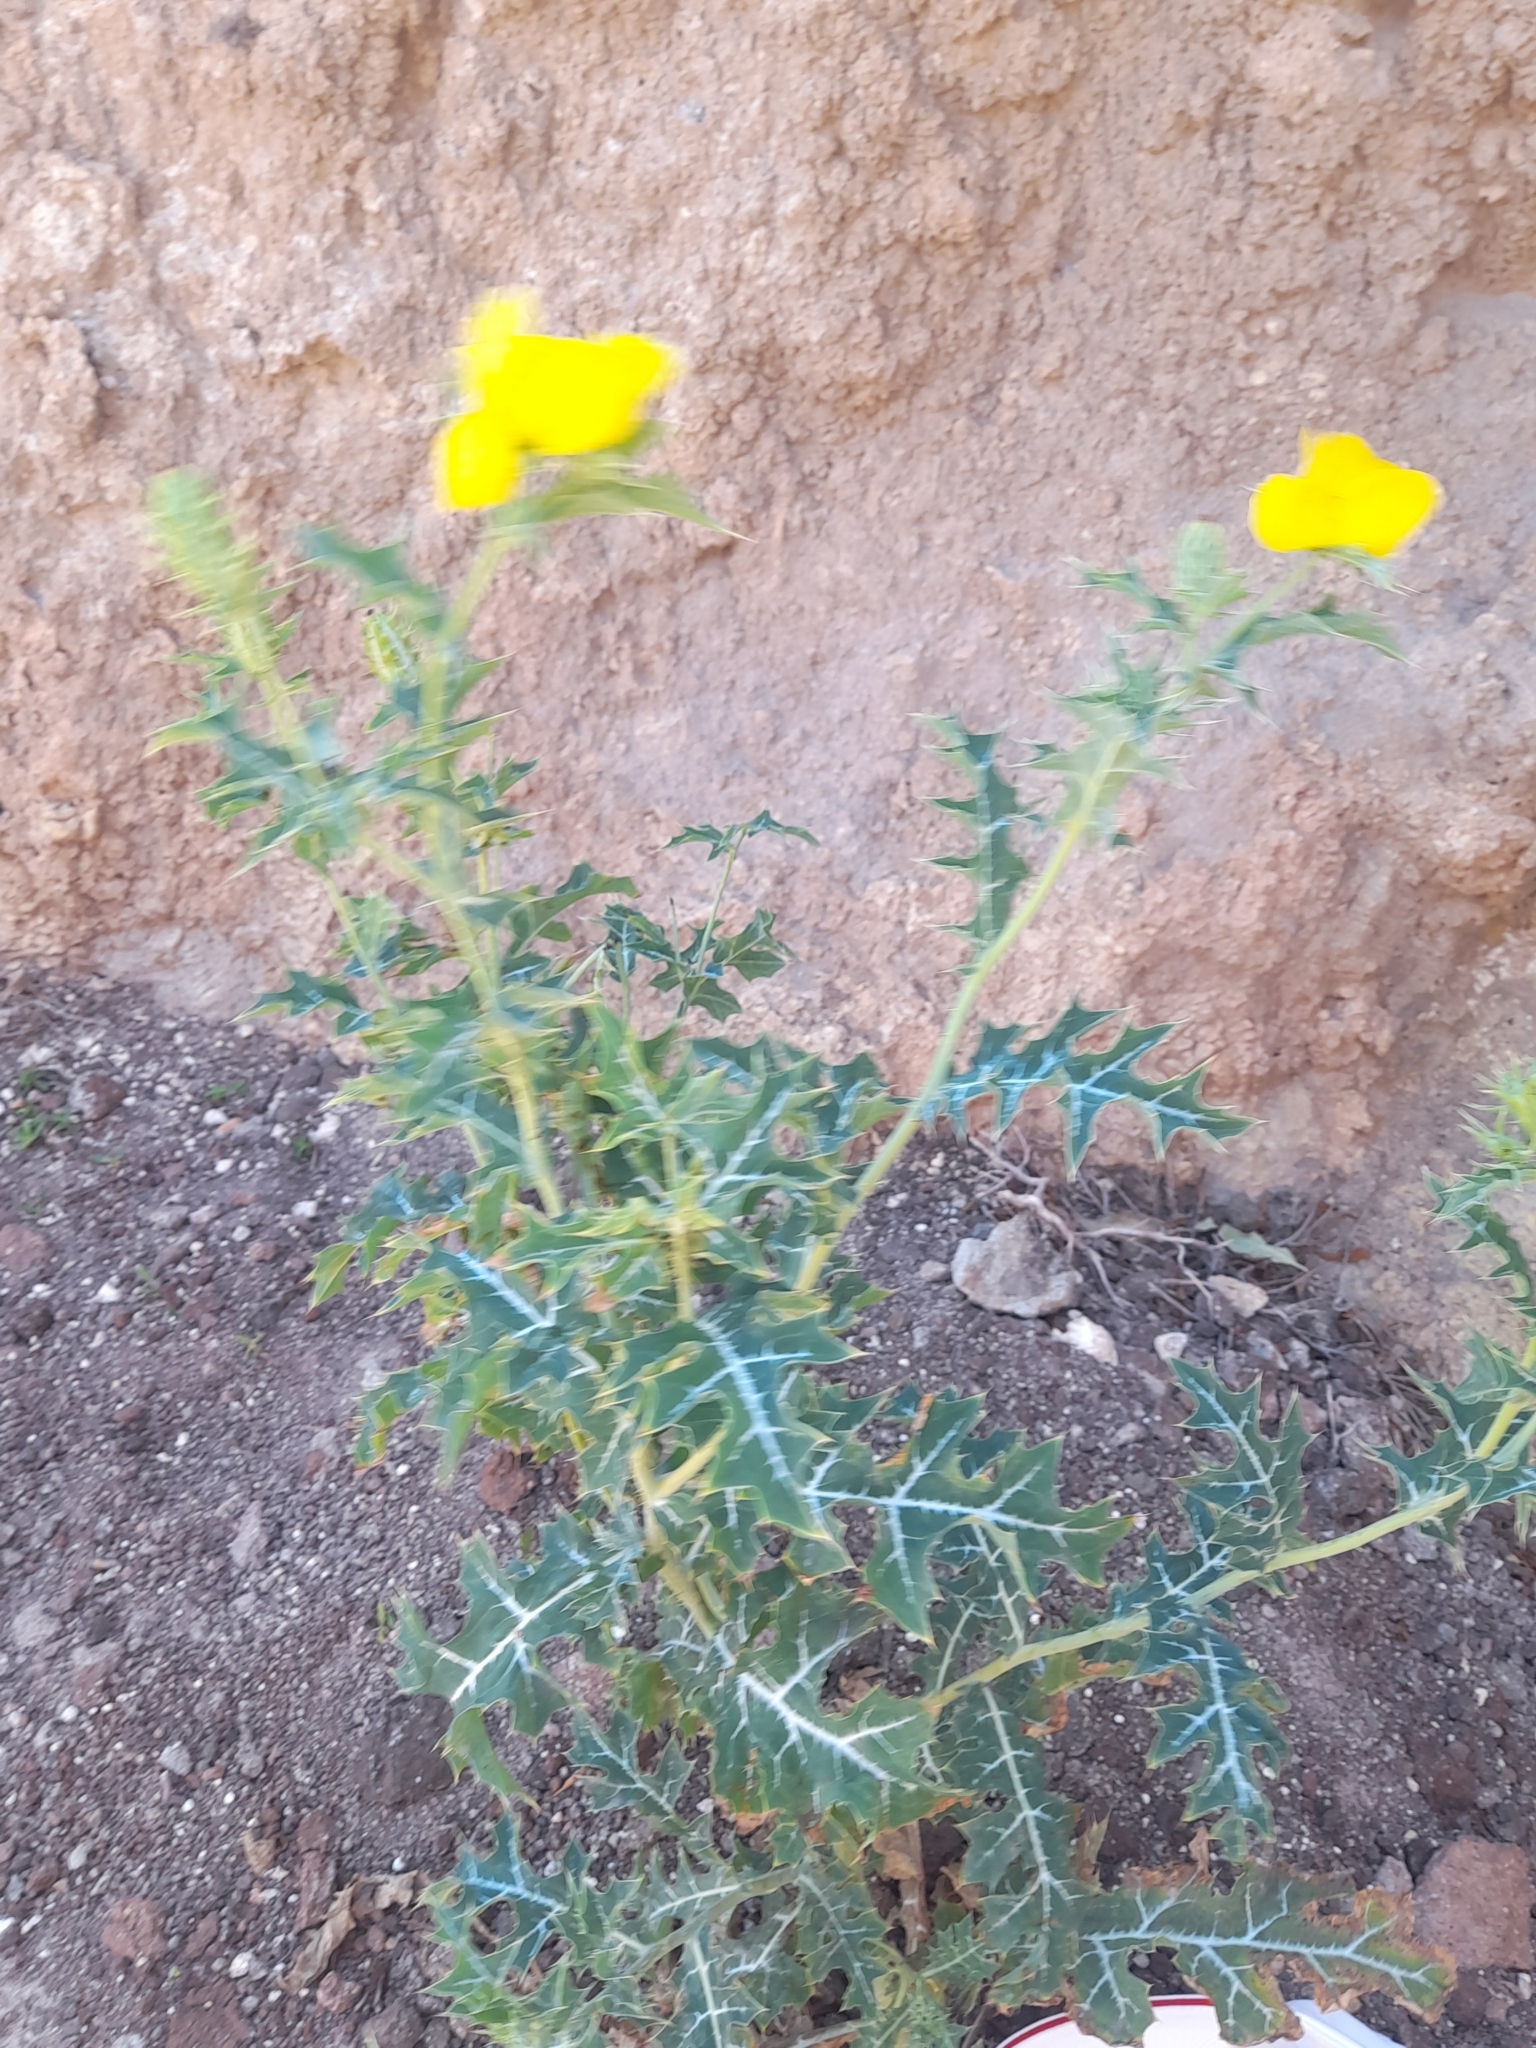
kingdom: Plantae
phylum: Tracheophyta
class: Magnoliopsida
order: Ranunculales
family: Papaveraceae
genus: Argemone
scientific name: Argemone mexicana
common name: Mexican poppy
